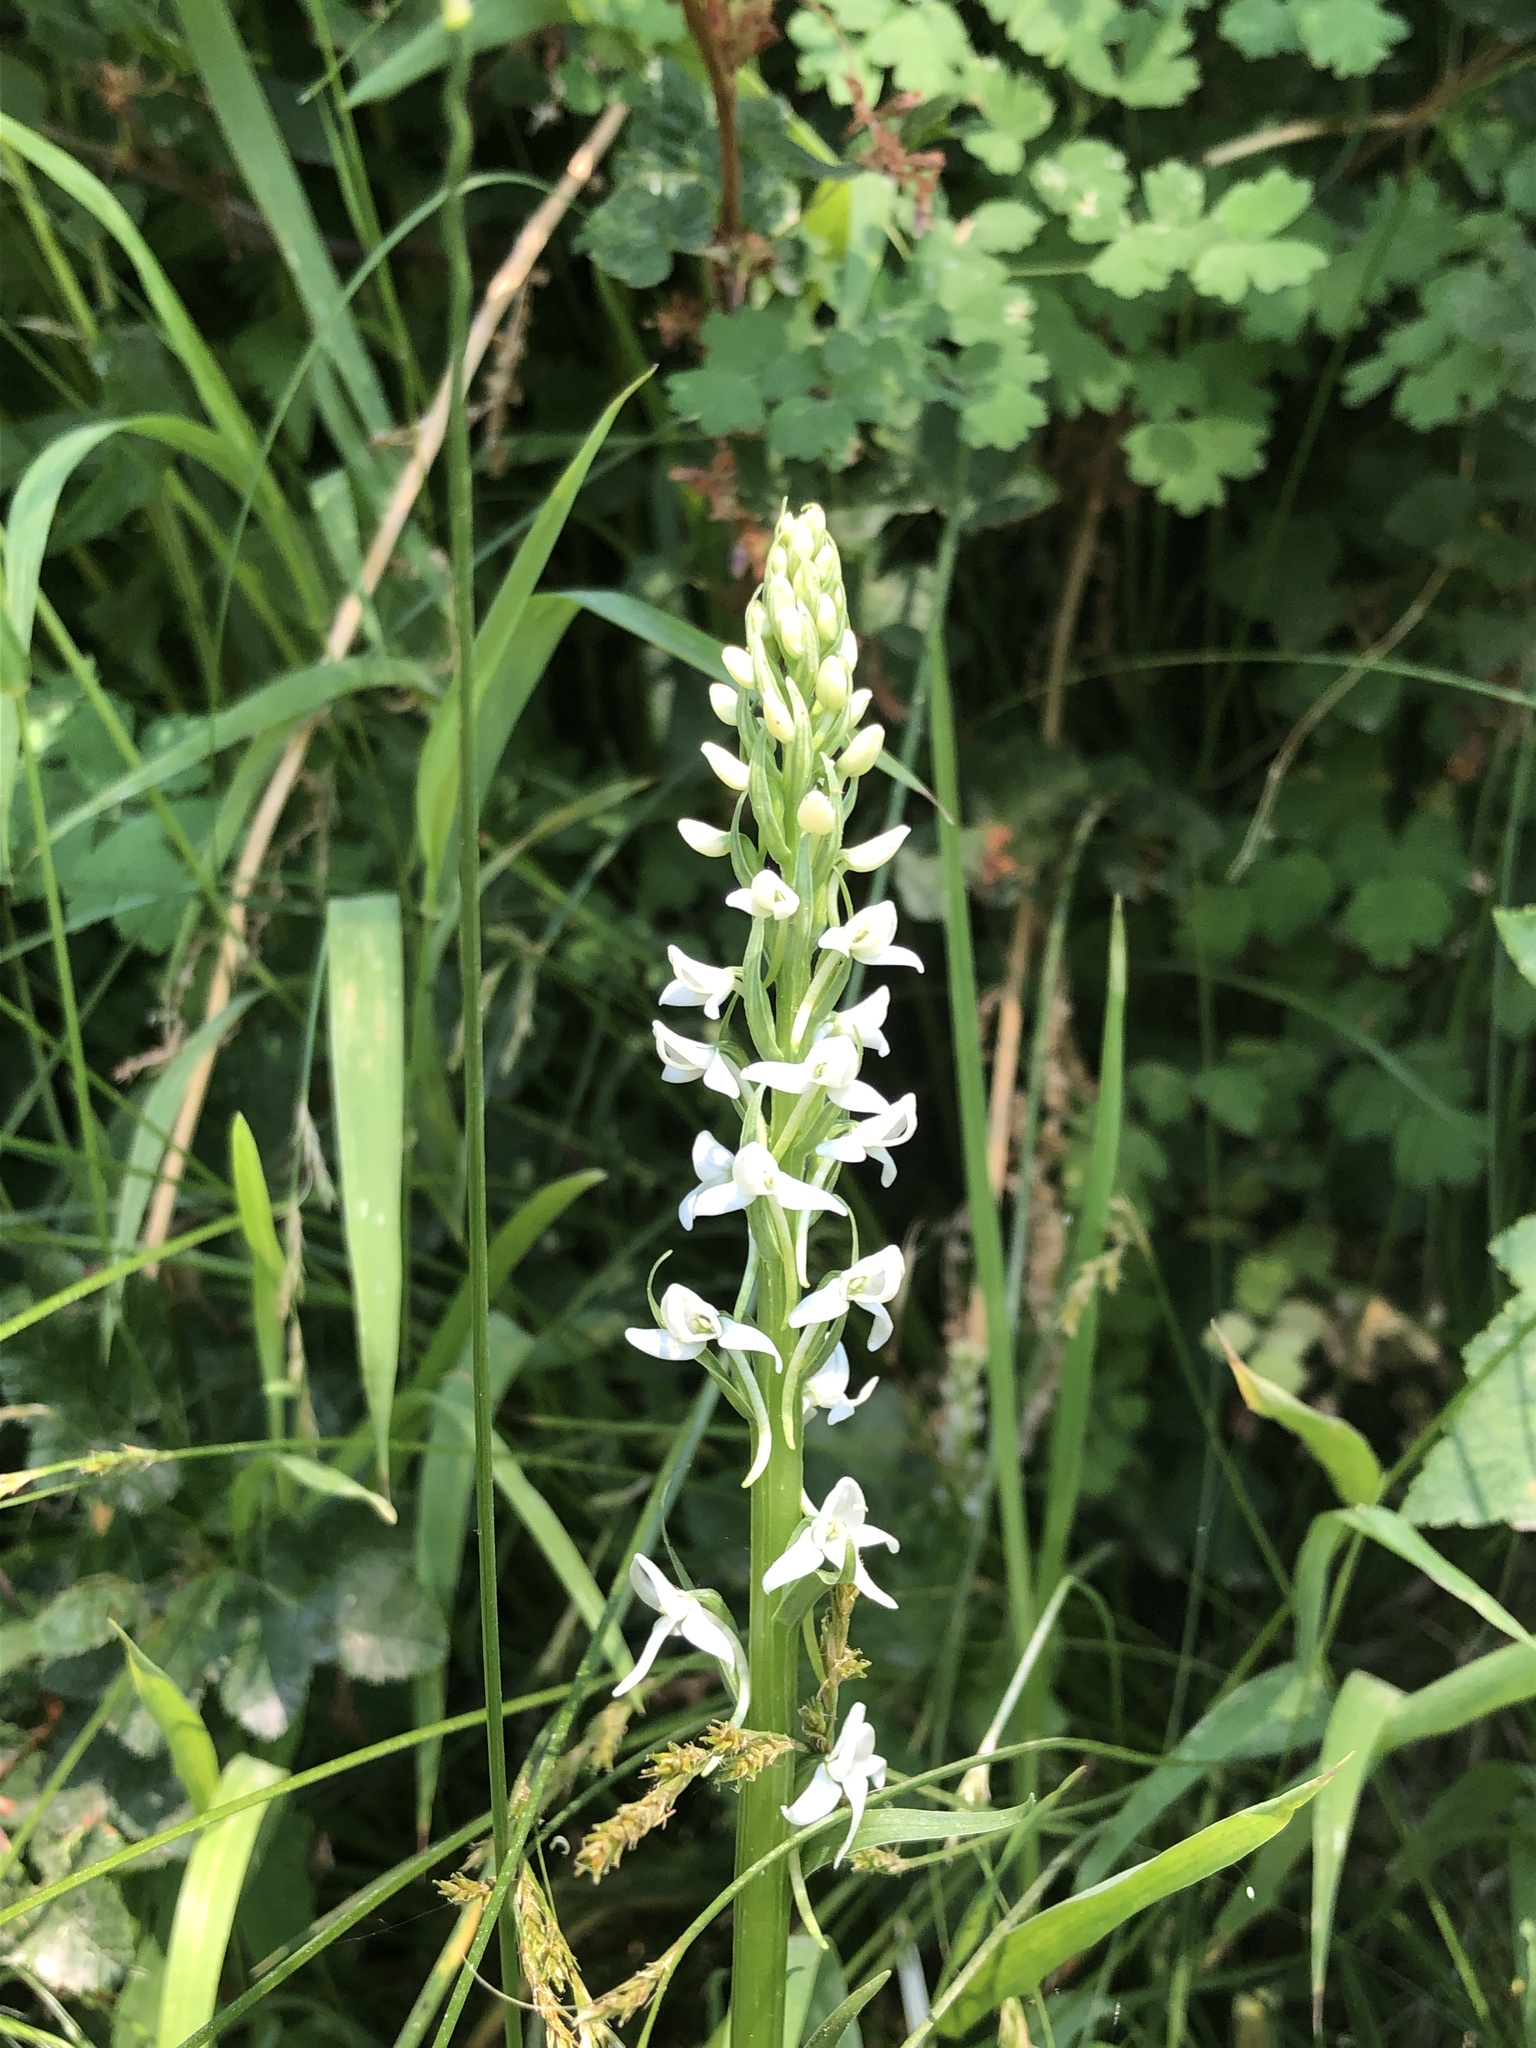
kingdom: Plantae
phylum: Tracheophyta
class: Liliopsida
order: Asparagales
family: Orchidaceae
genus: Platanthera
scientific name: Platanthera dilatata
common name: Bog candles
